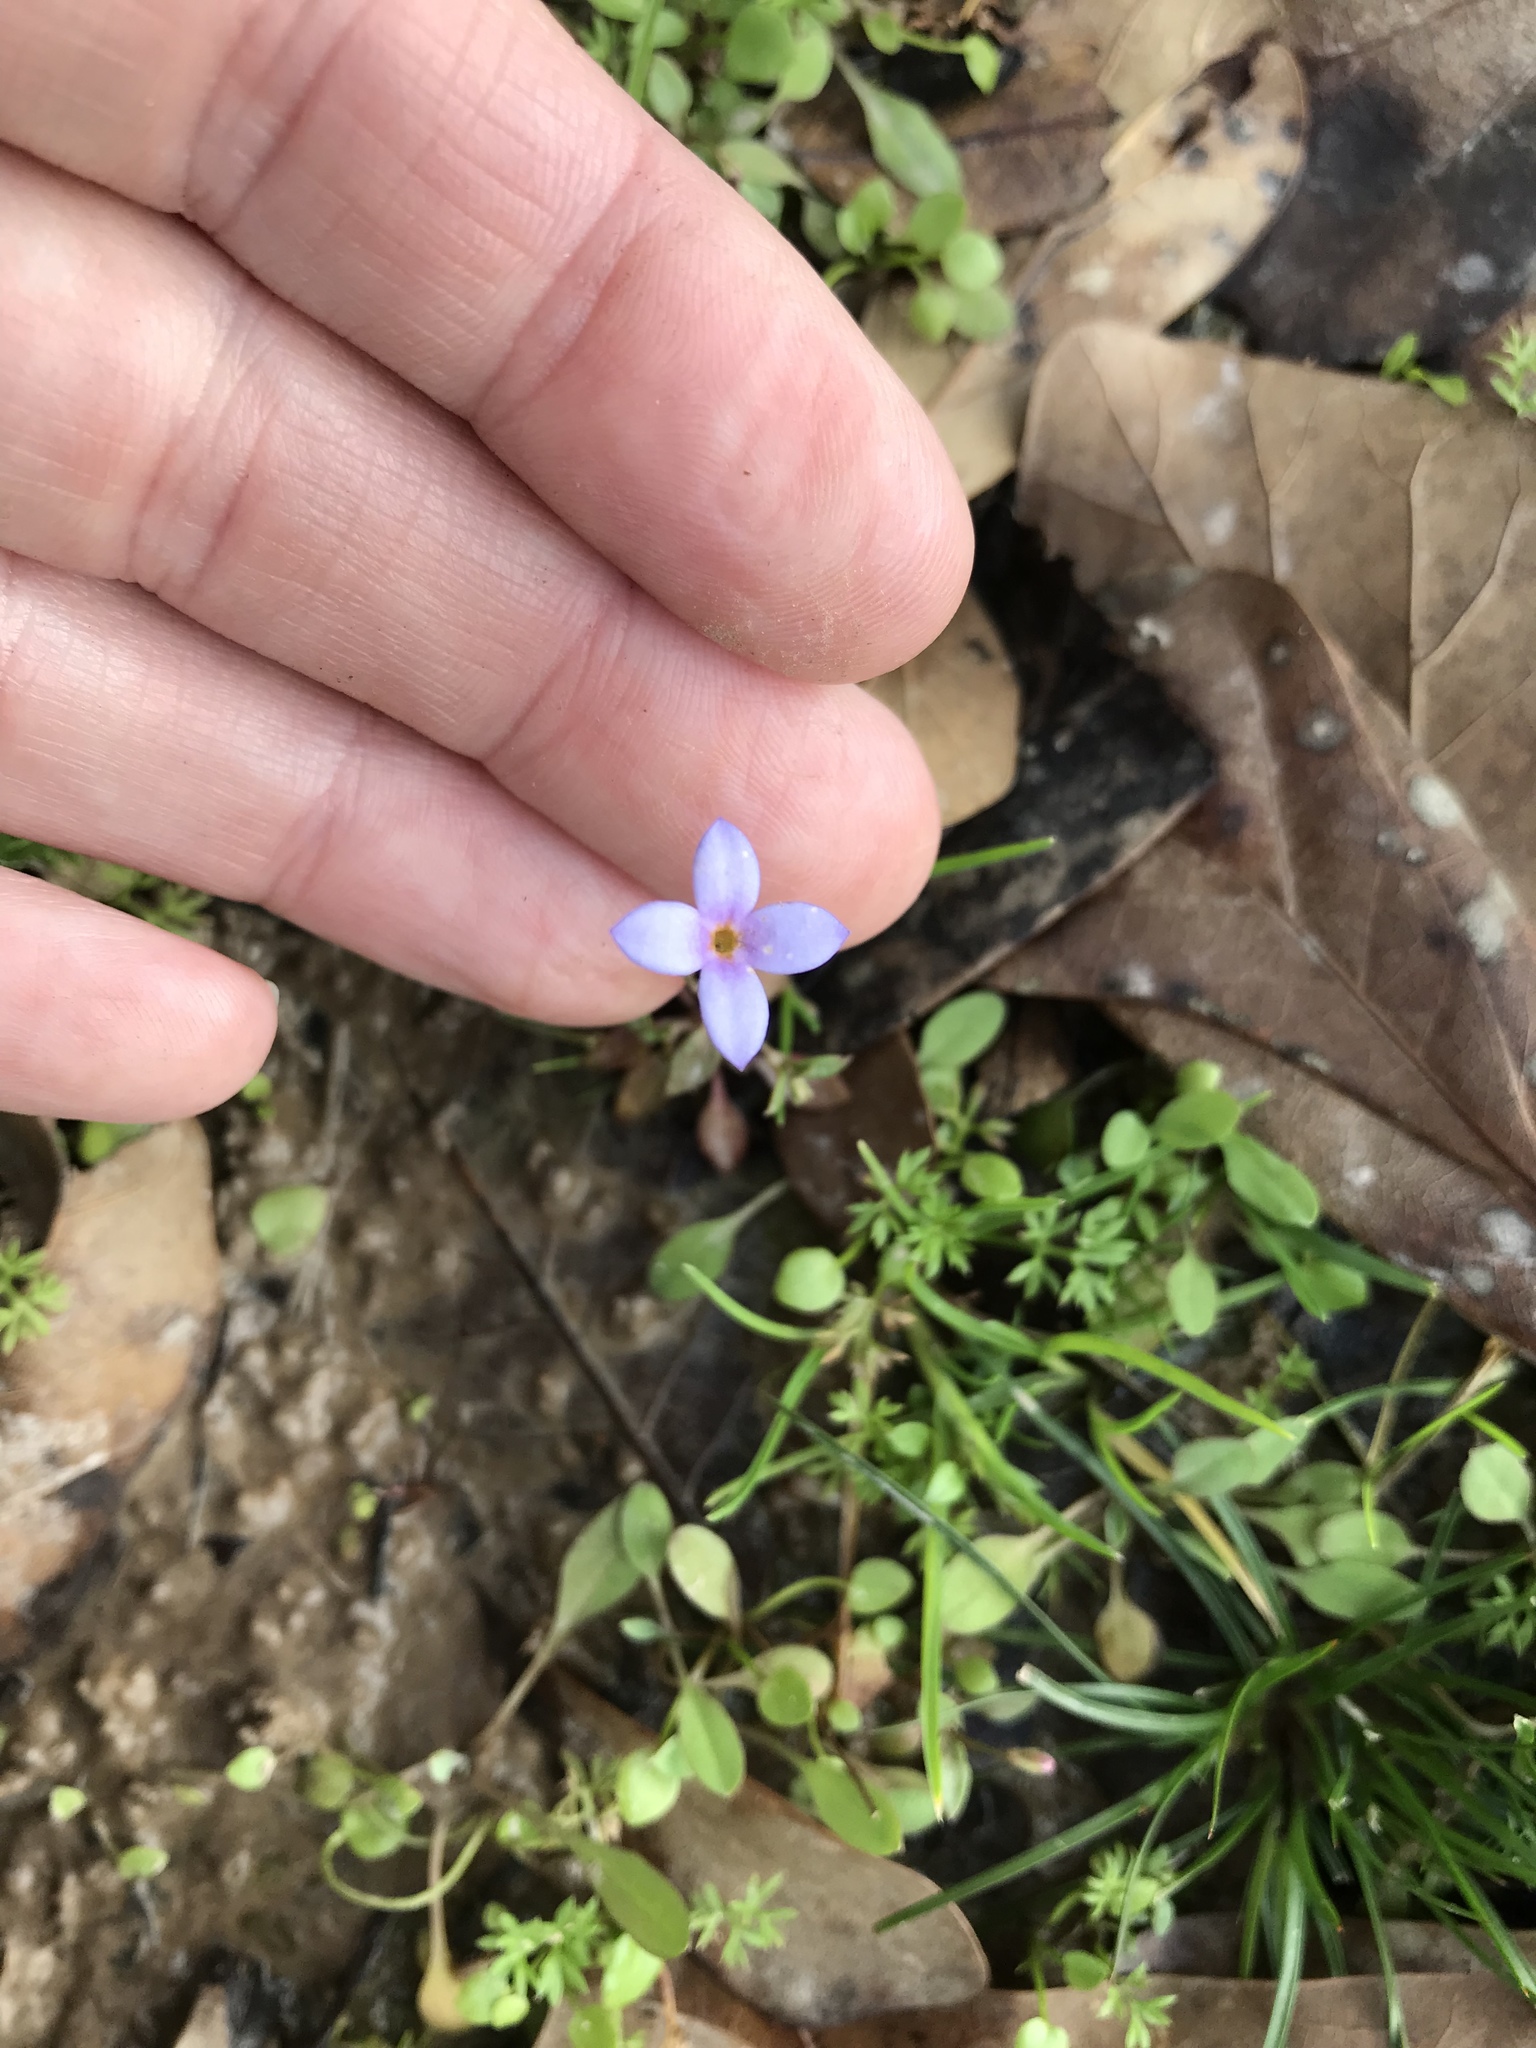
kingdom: Plantae
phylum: Tracheophyta
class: Magnoliopsida
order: Gentianales
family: Rubiaceae
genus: Houstonia
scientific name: Houstonia pusilla
